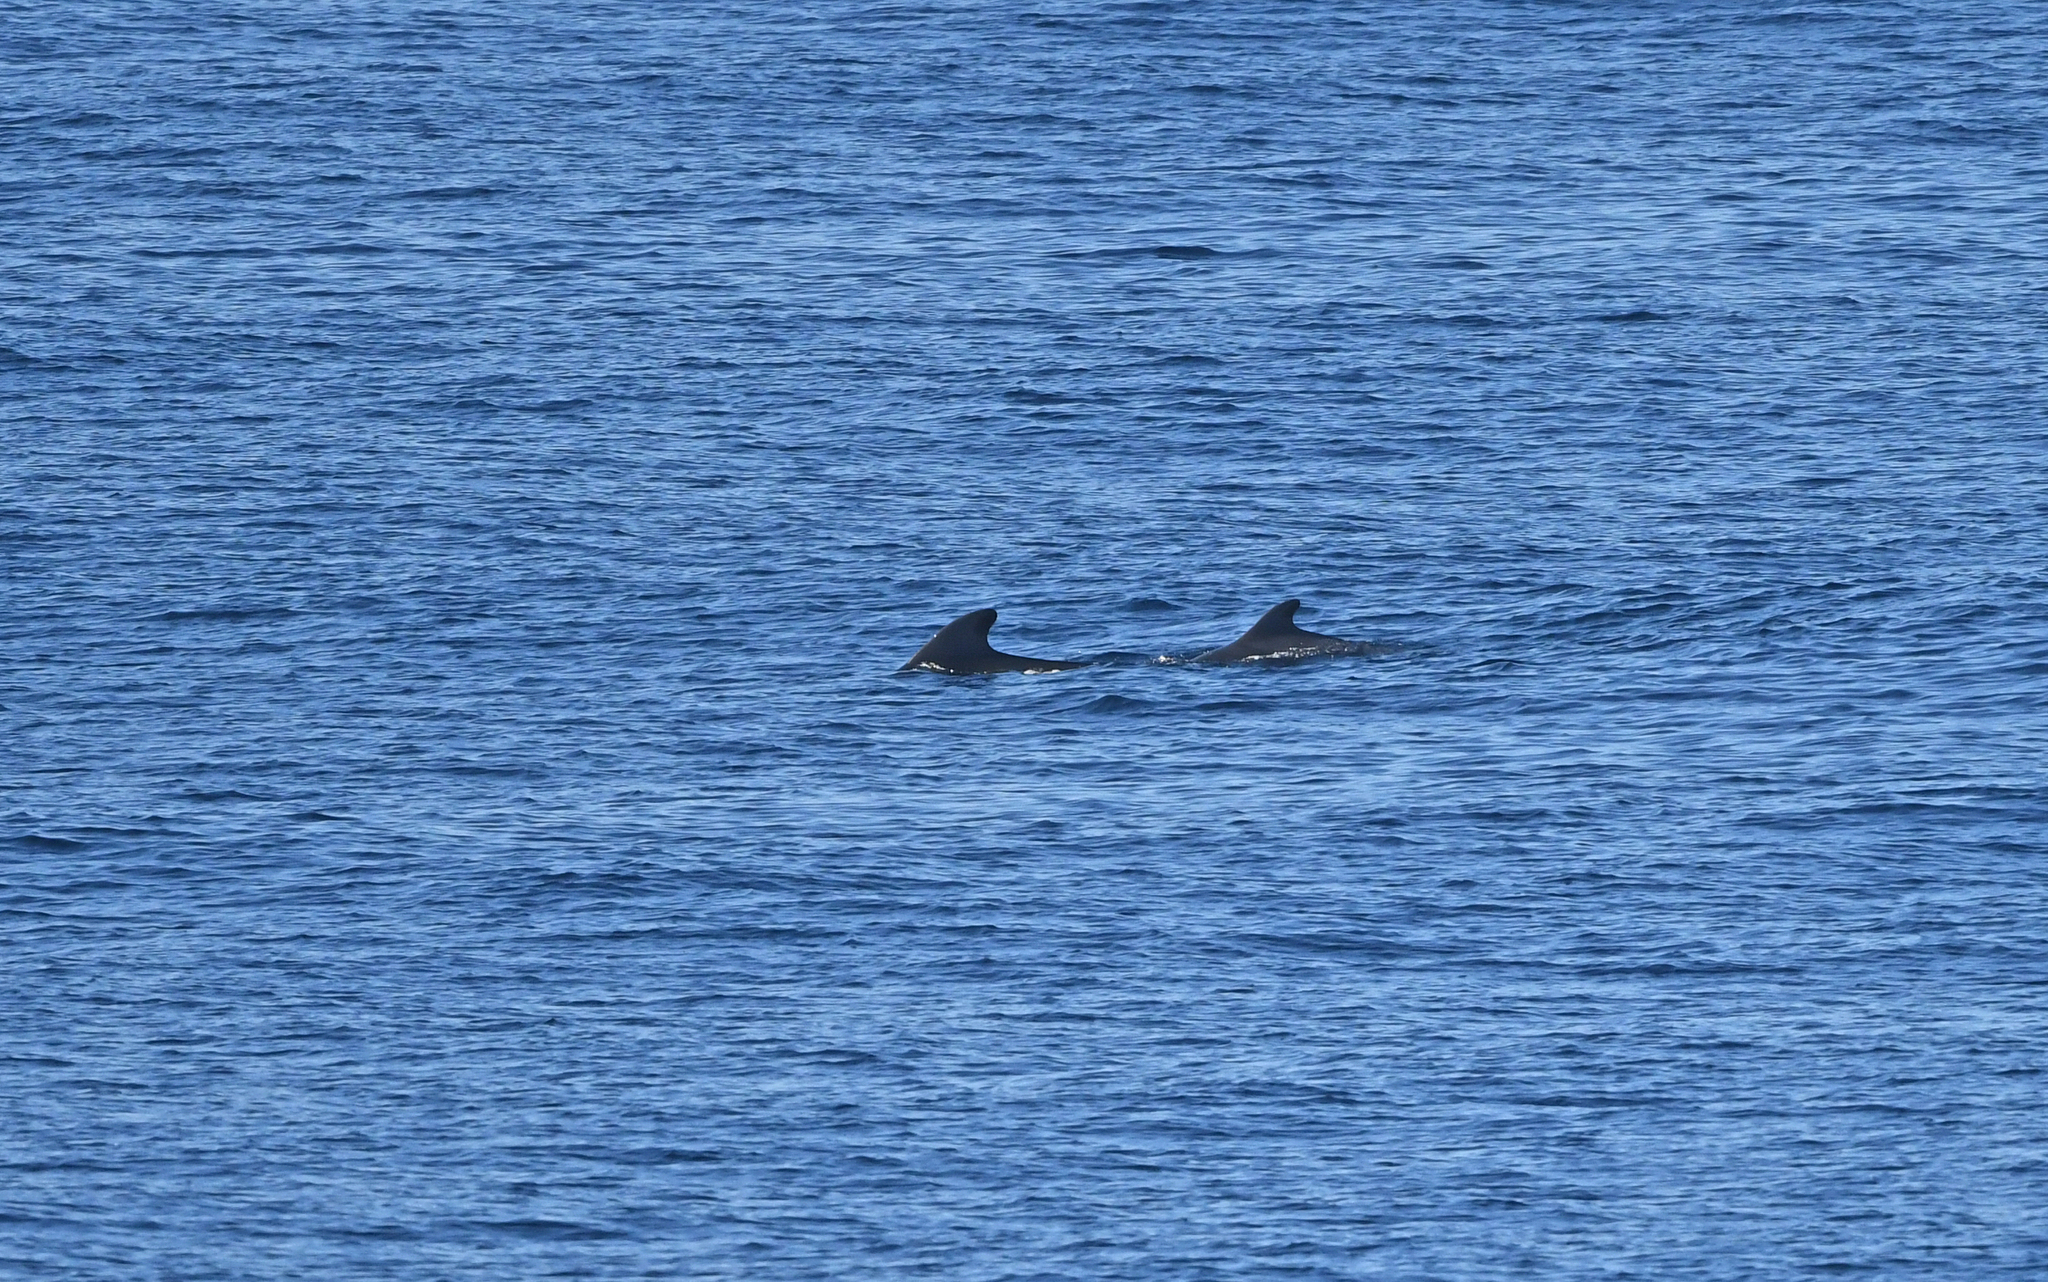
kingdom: Animalia
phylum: Chordata
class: Mammalia
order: Cetacea
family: Delphinidae
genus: Globicephala
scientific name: Globicephala macrorhynchus
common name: Short-finned pilot whale
